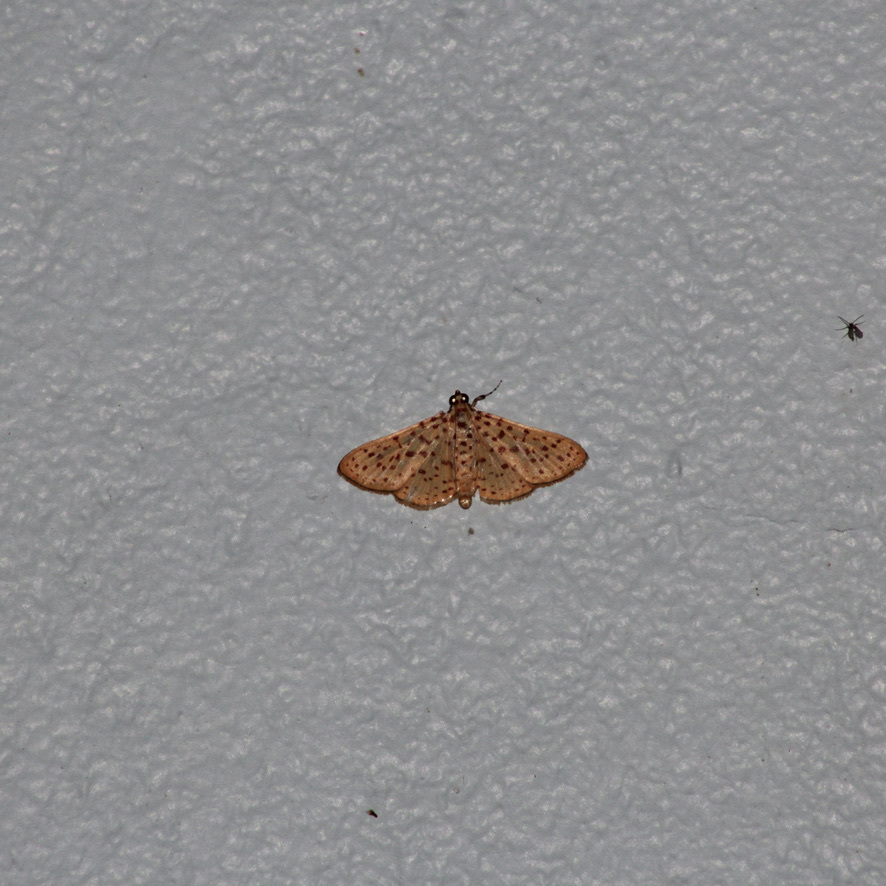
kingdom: Animalia
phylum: Arthropoda
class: Insecta
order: Lepidoptera
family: Crambidae
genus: Polygrammodes
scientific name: Polygrammodes elevata
